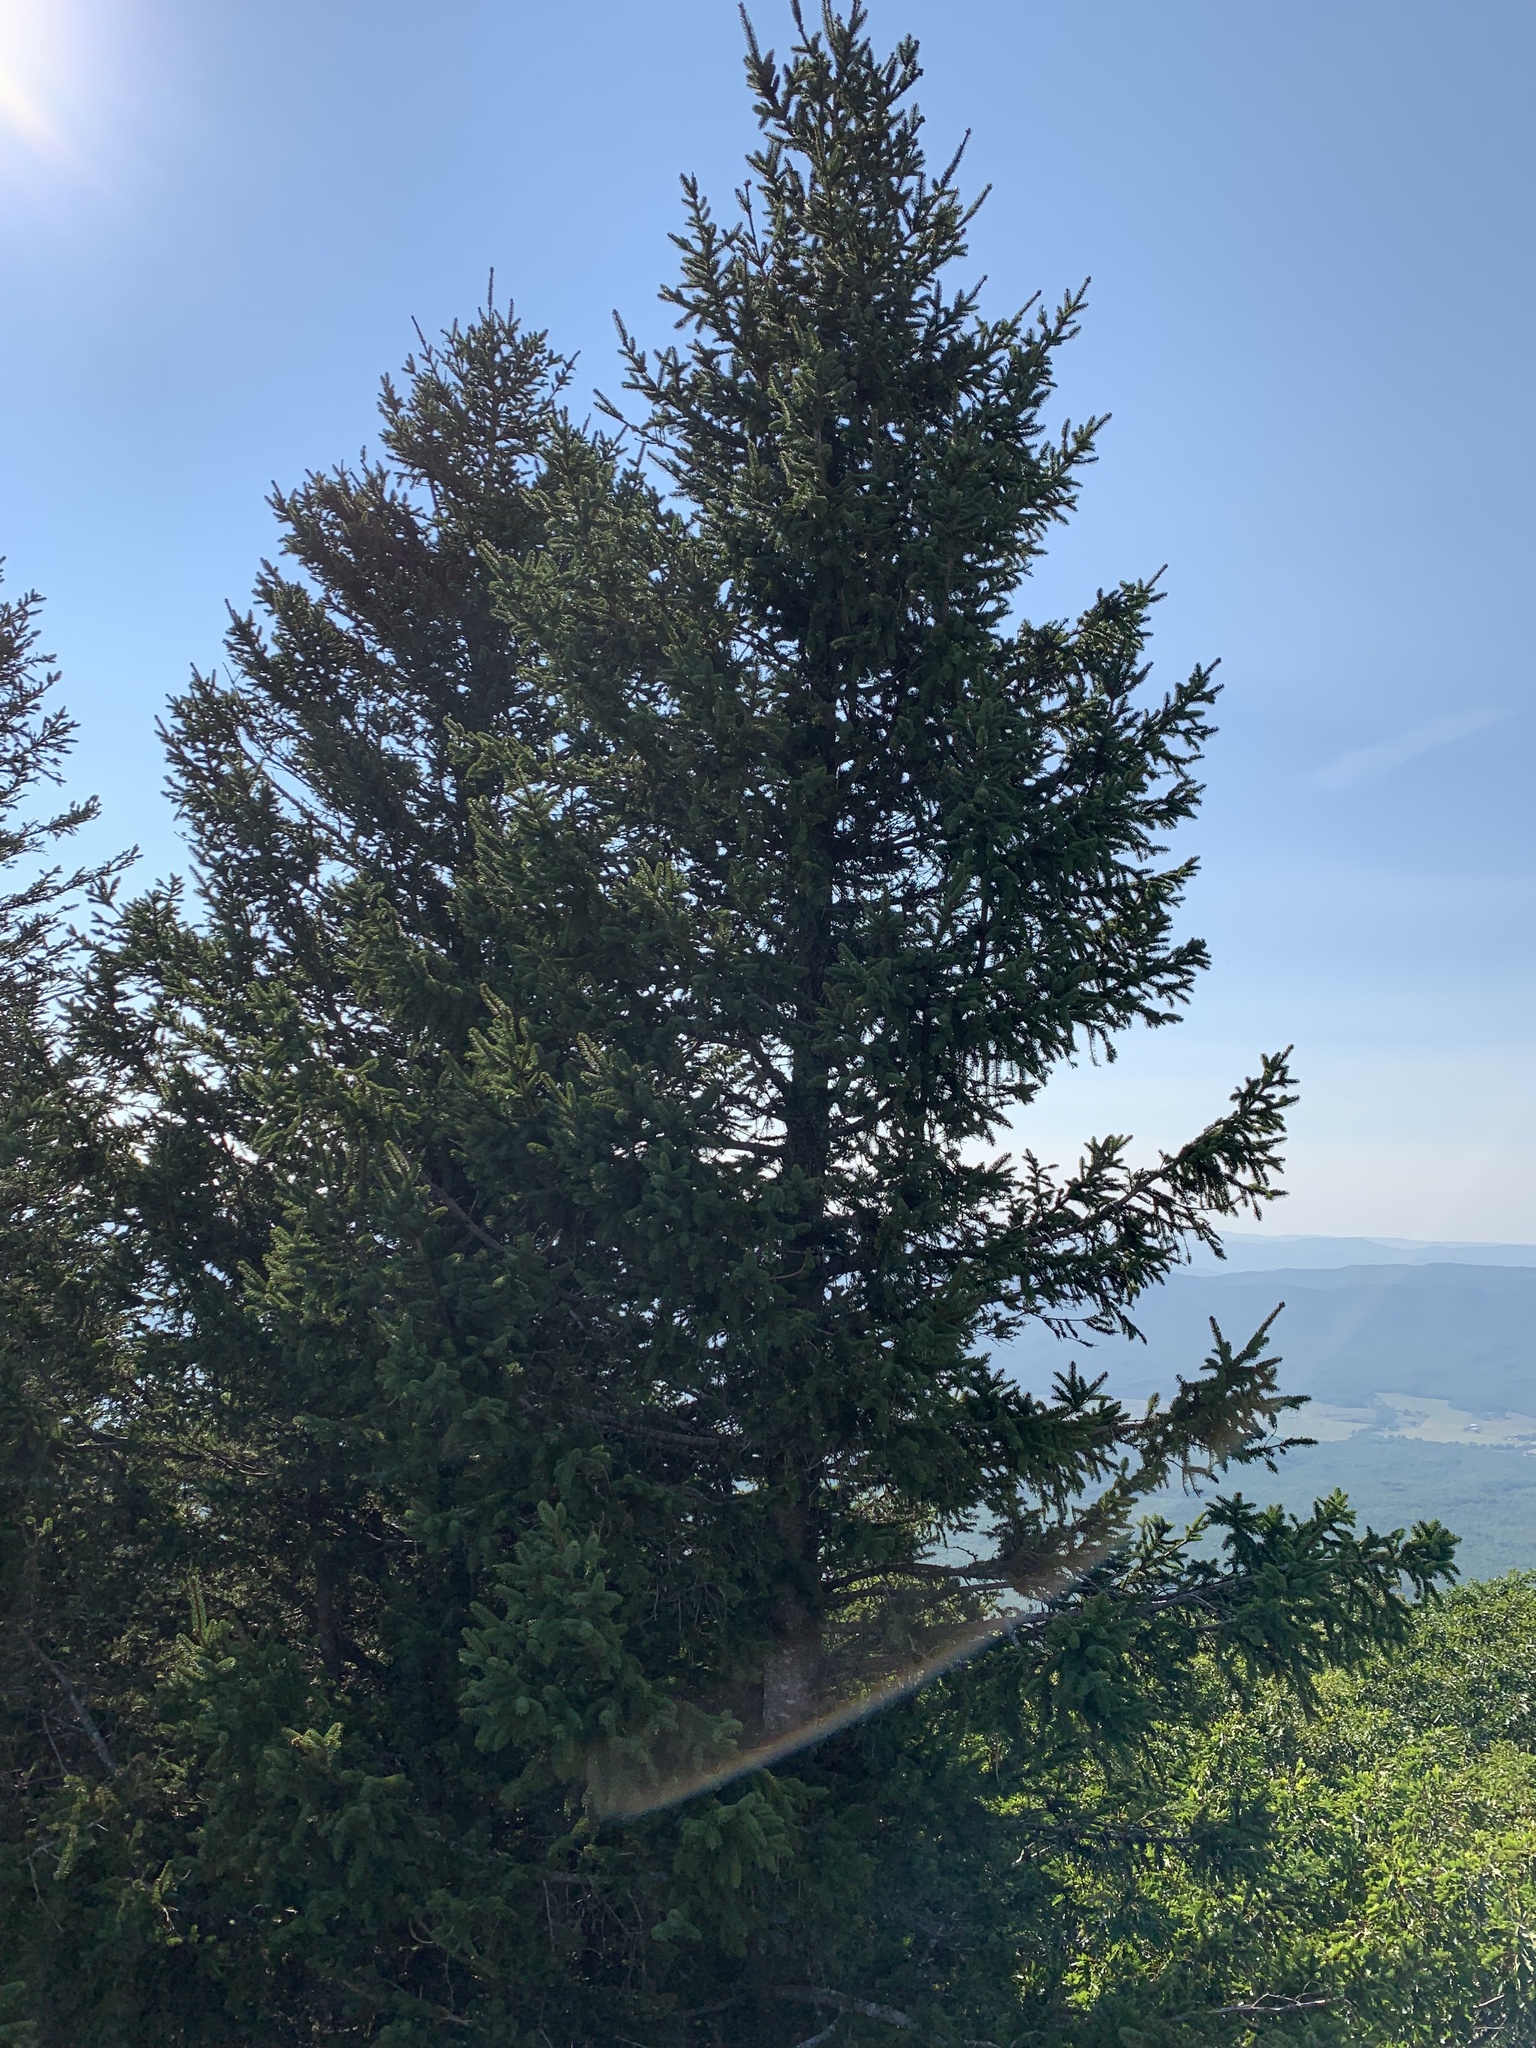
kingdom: Plantae
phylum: Tracheophyta
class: Pinopsida
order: Pinales
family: Pinaceae
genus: Picea
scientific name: Picea rubens
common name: Red spruce
